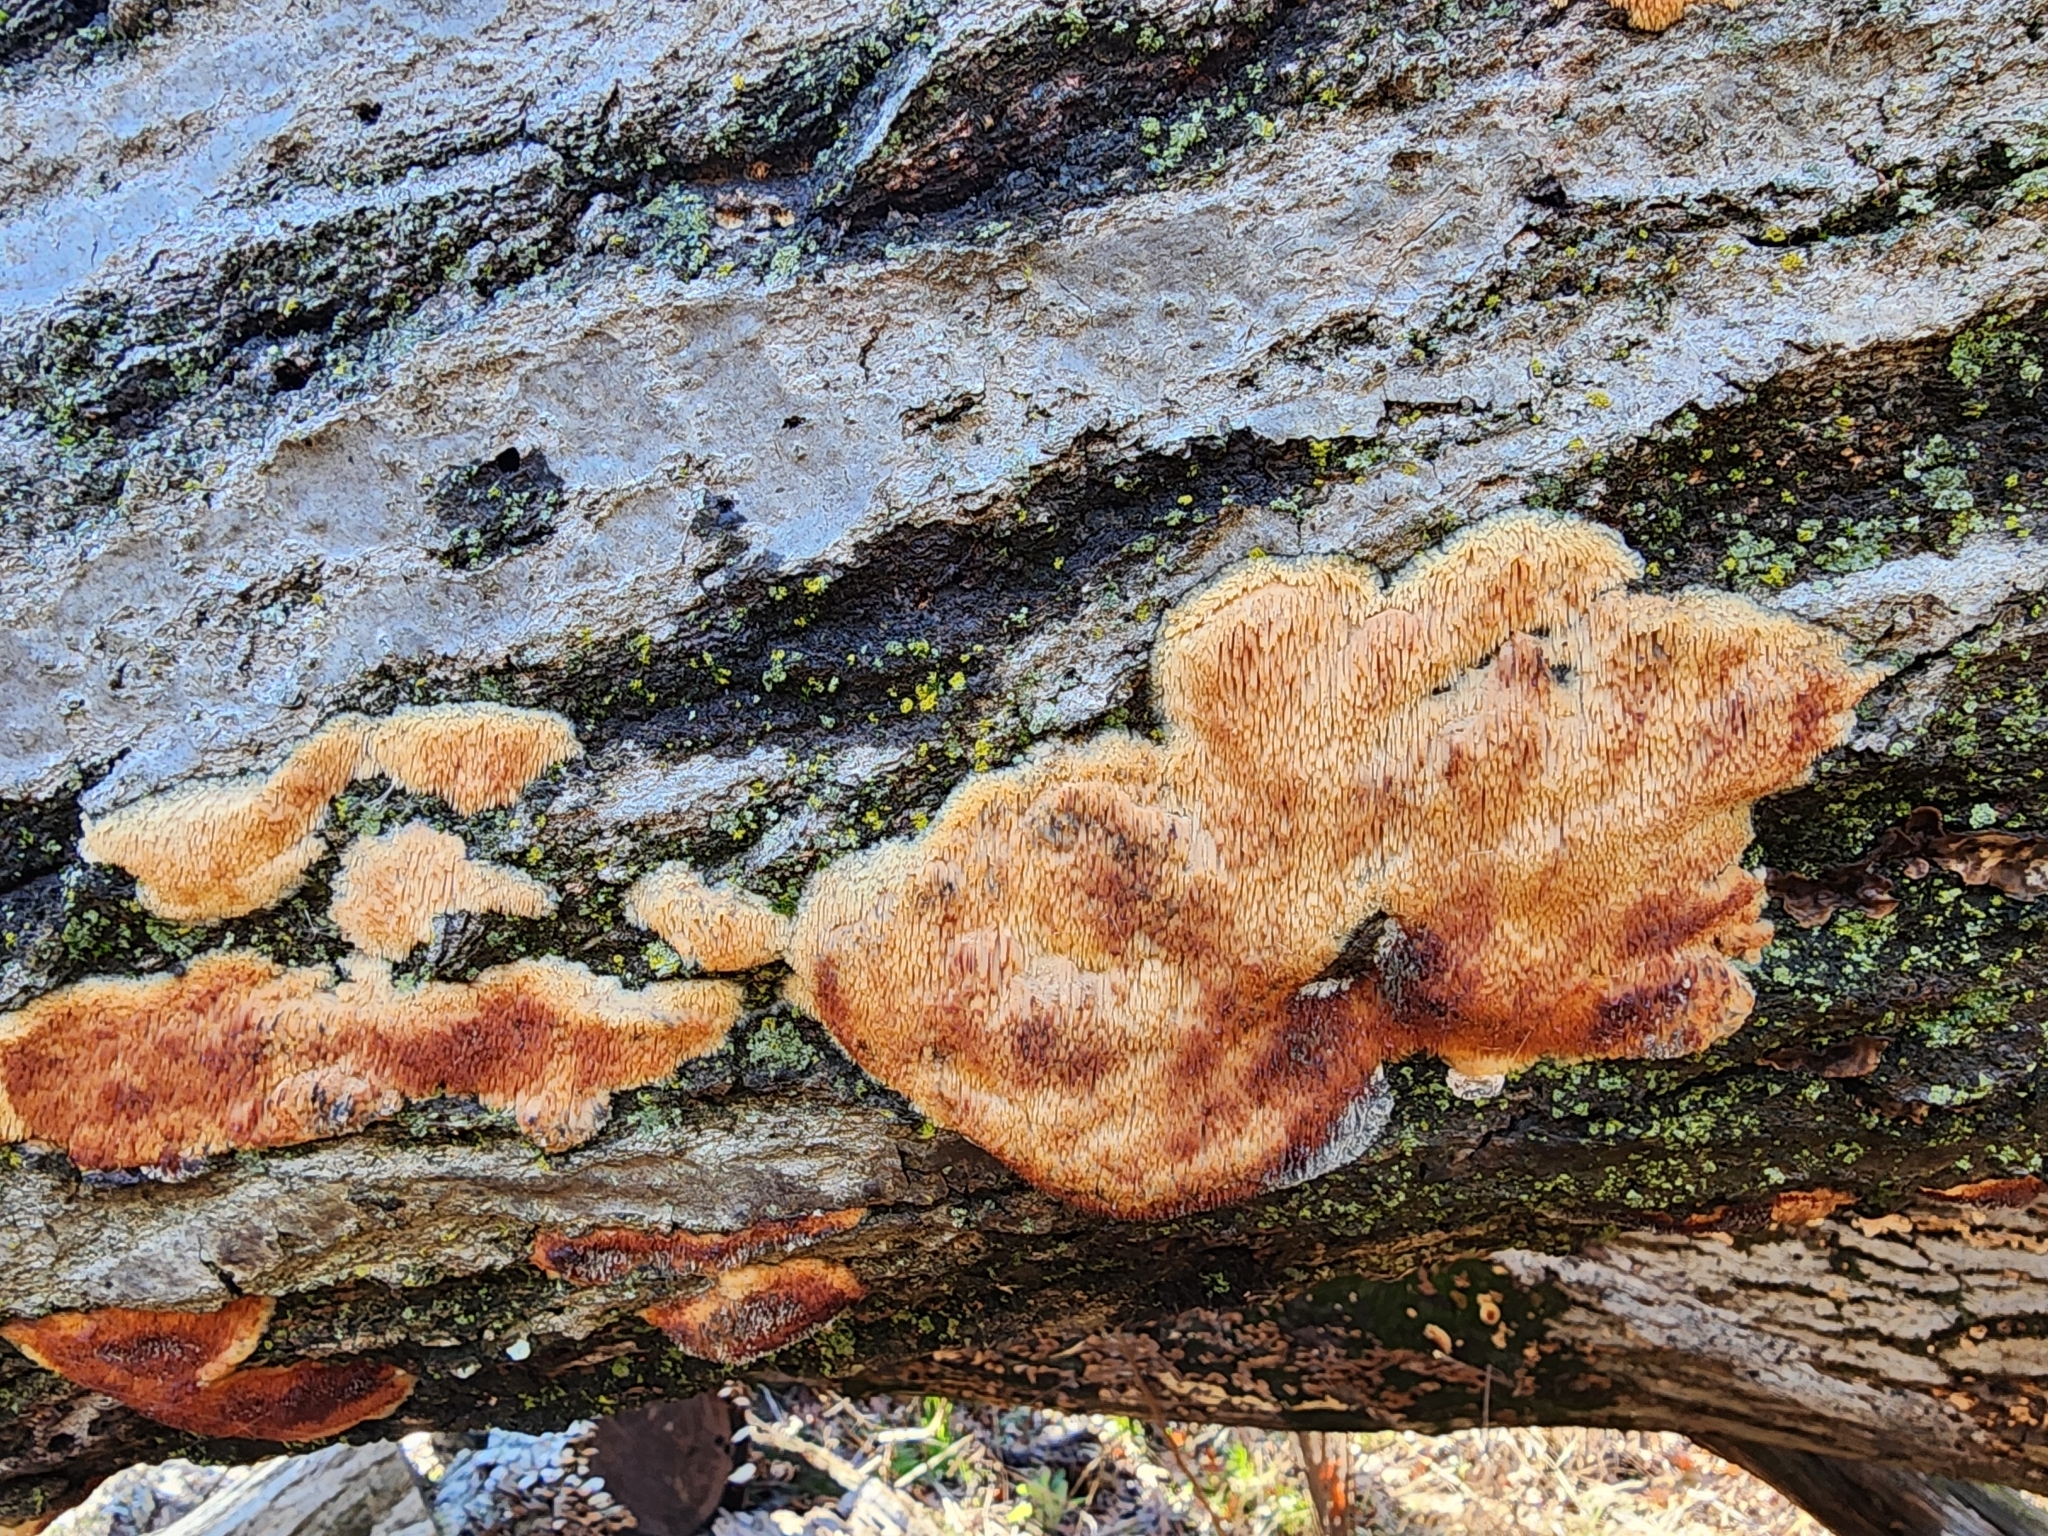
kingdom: Fungi
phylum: Basidiomycota
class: Agaricomycetes
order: Agaricales
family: Radulomycetaceae
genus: Radulomyces
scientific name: Radulomyces copelandii
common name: Asian beauty
